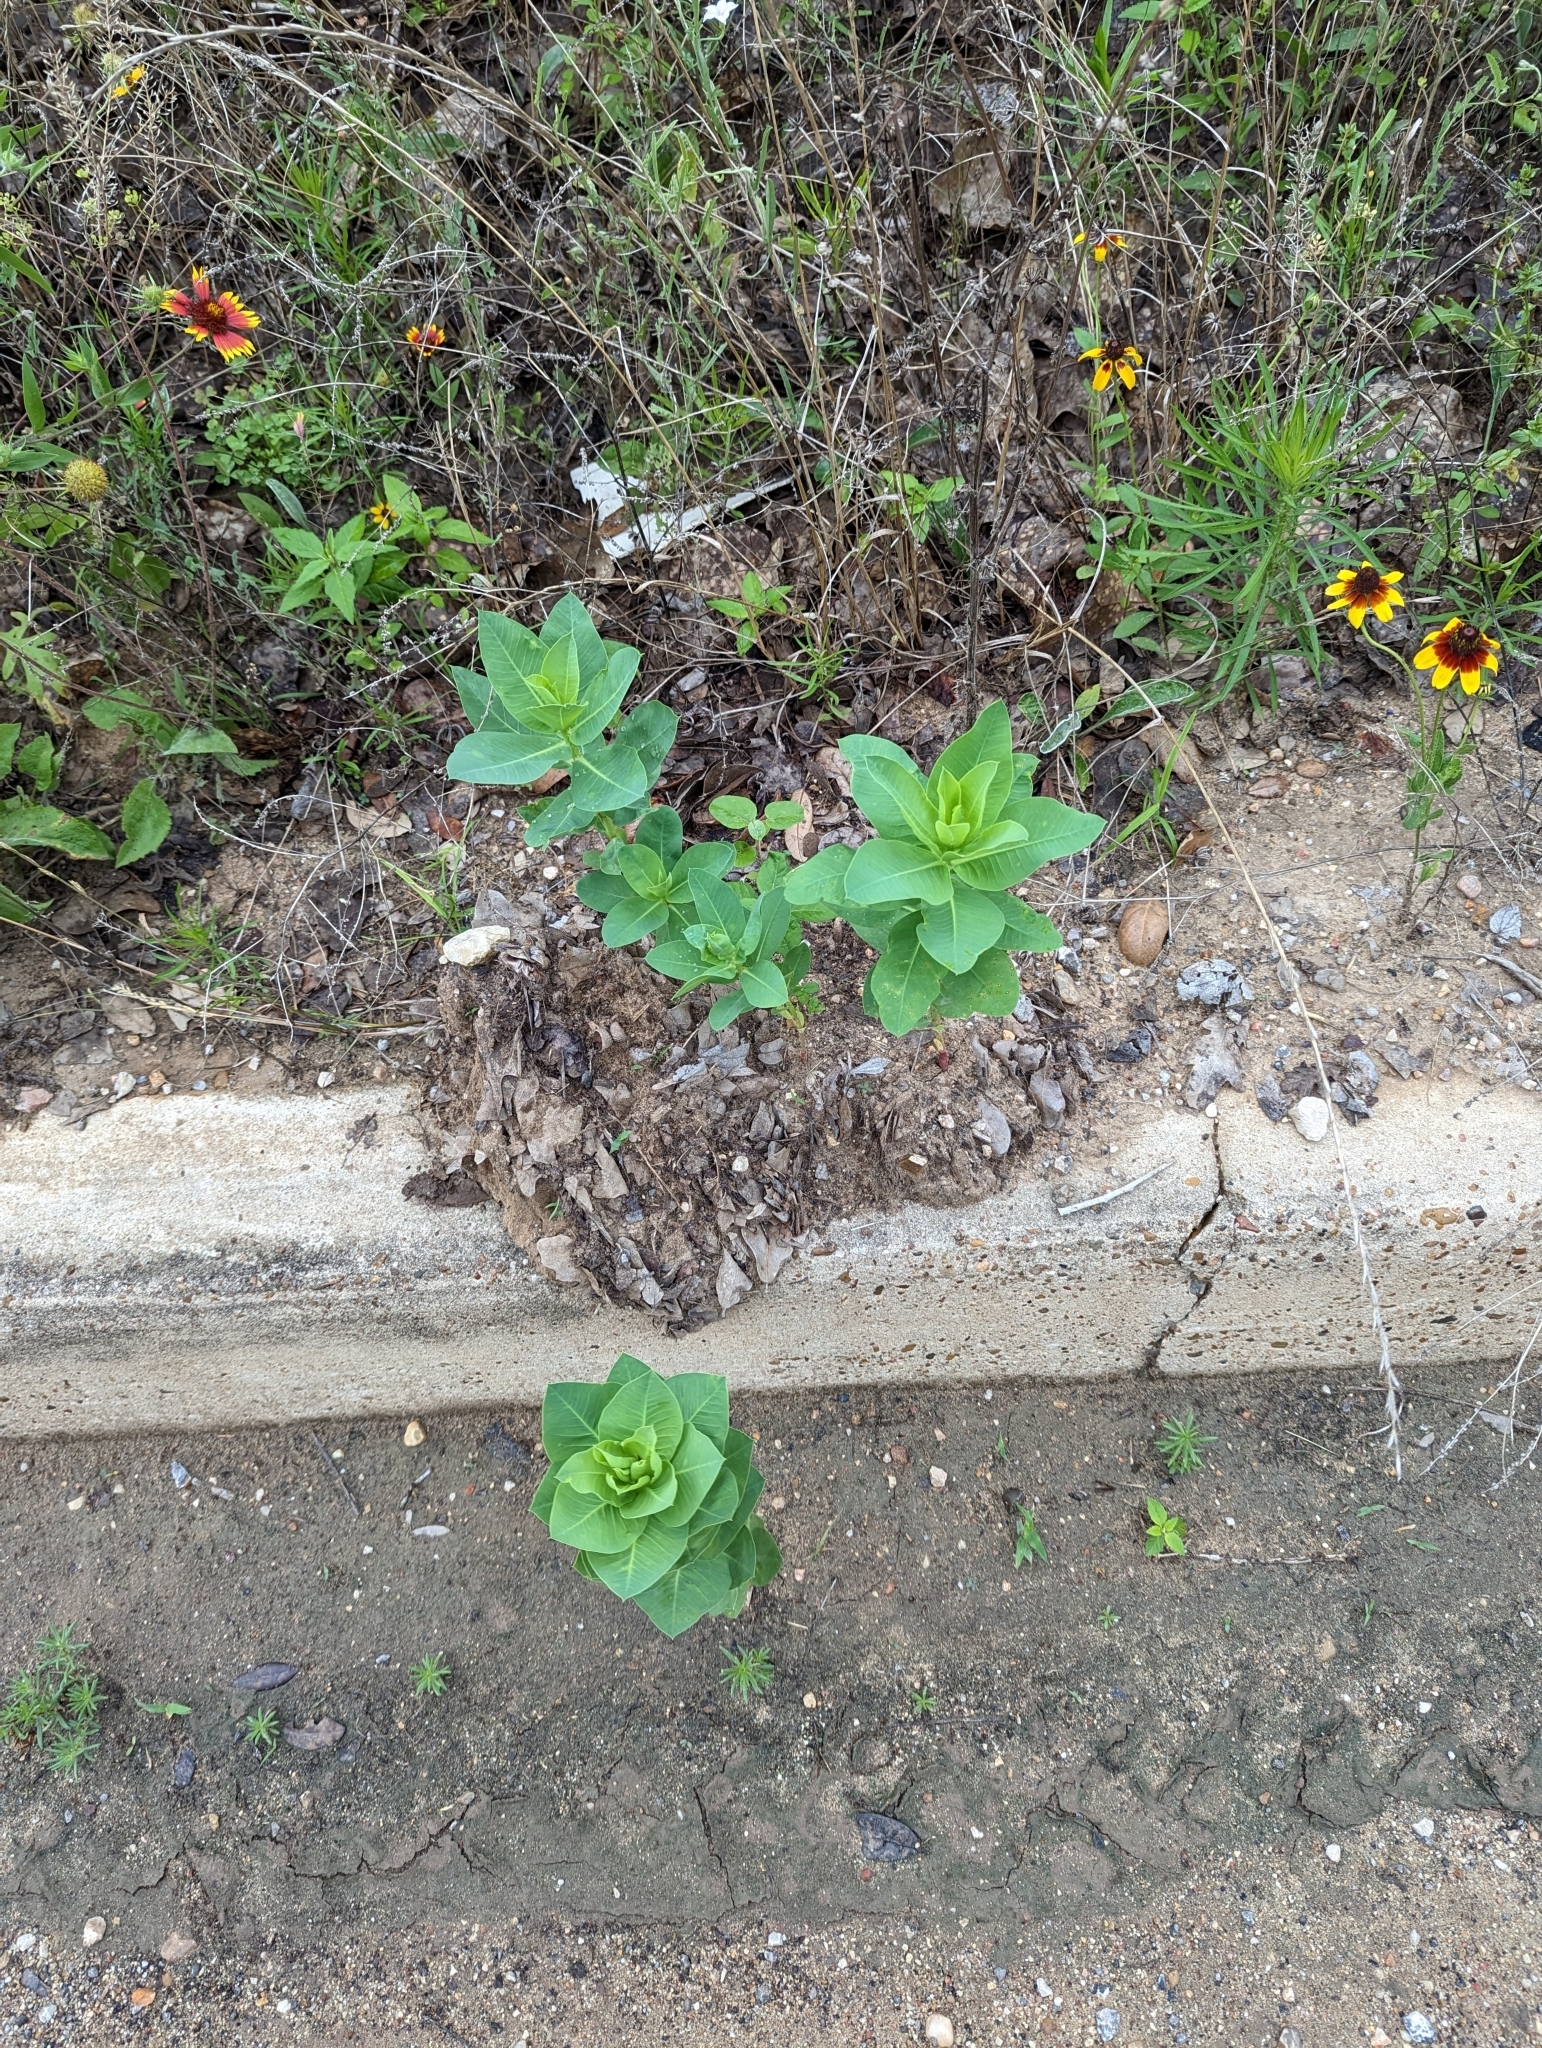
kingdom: Plantae
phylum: Tracheophyta
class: Magnoliopsida
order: Malpighiales
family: Euphorbiaceae
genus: Euphorbia
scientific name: Euphorbia marginata
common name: Ghostweed
